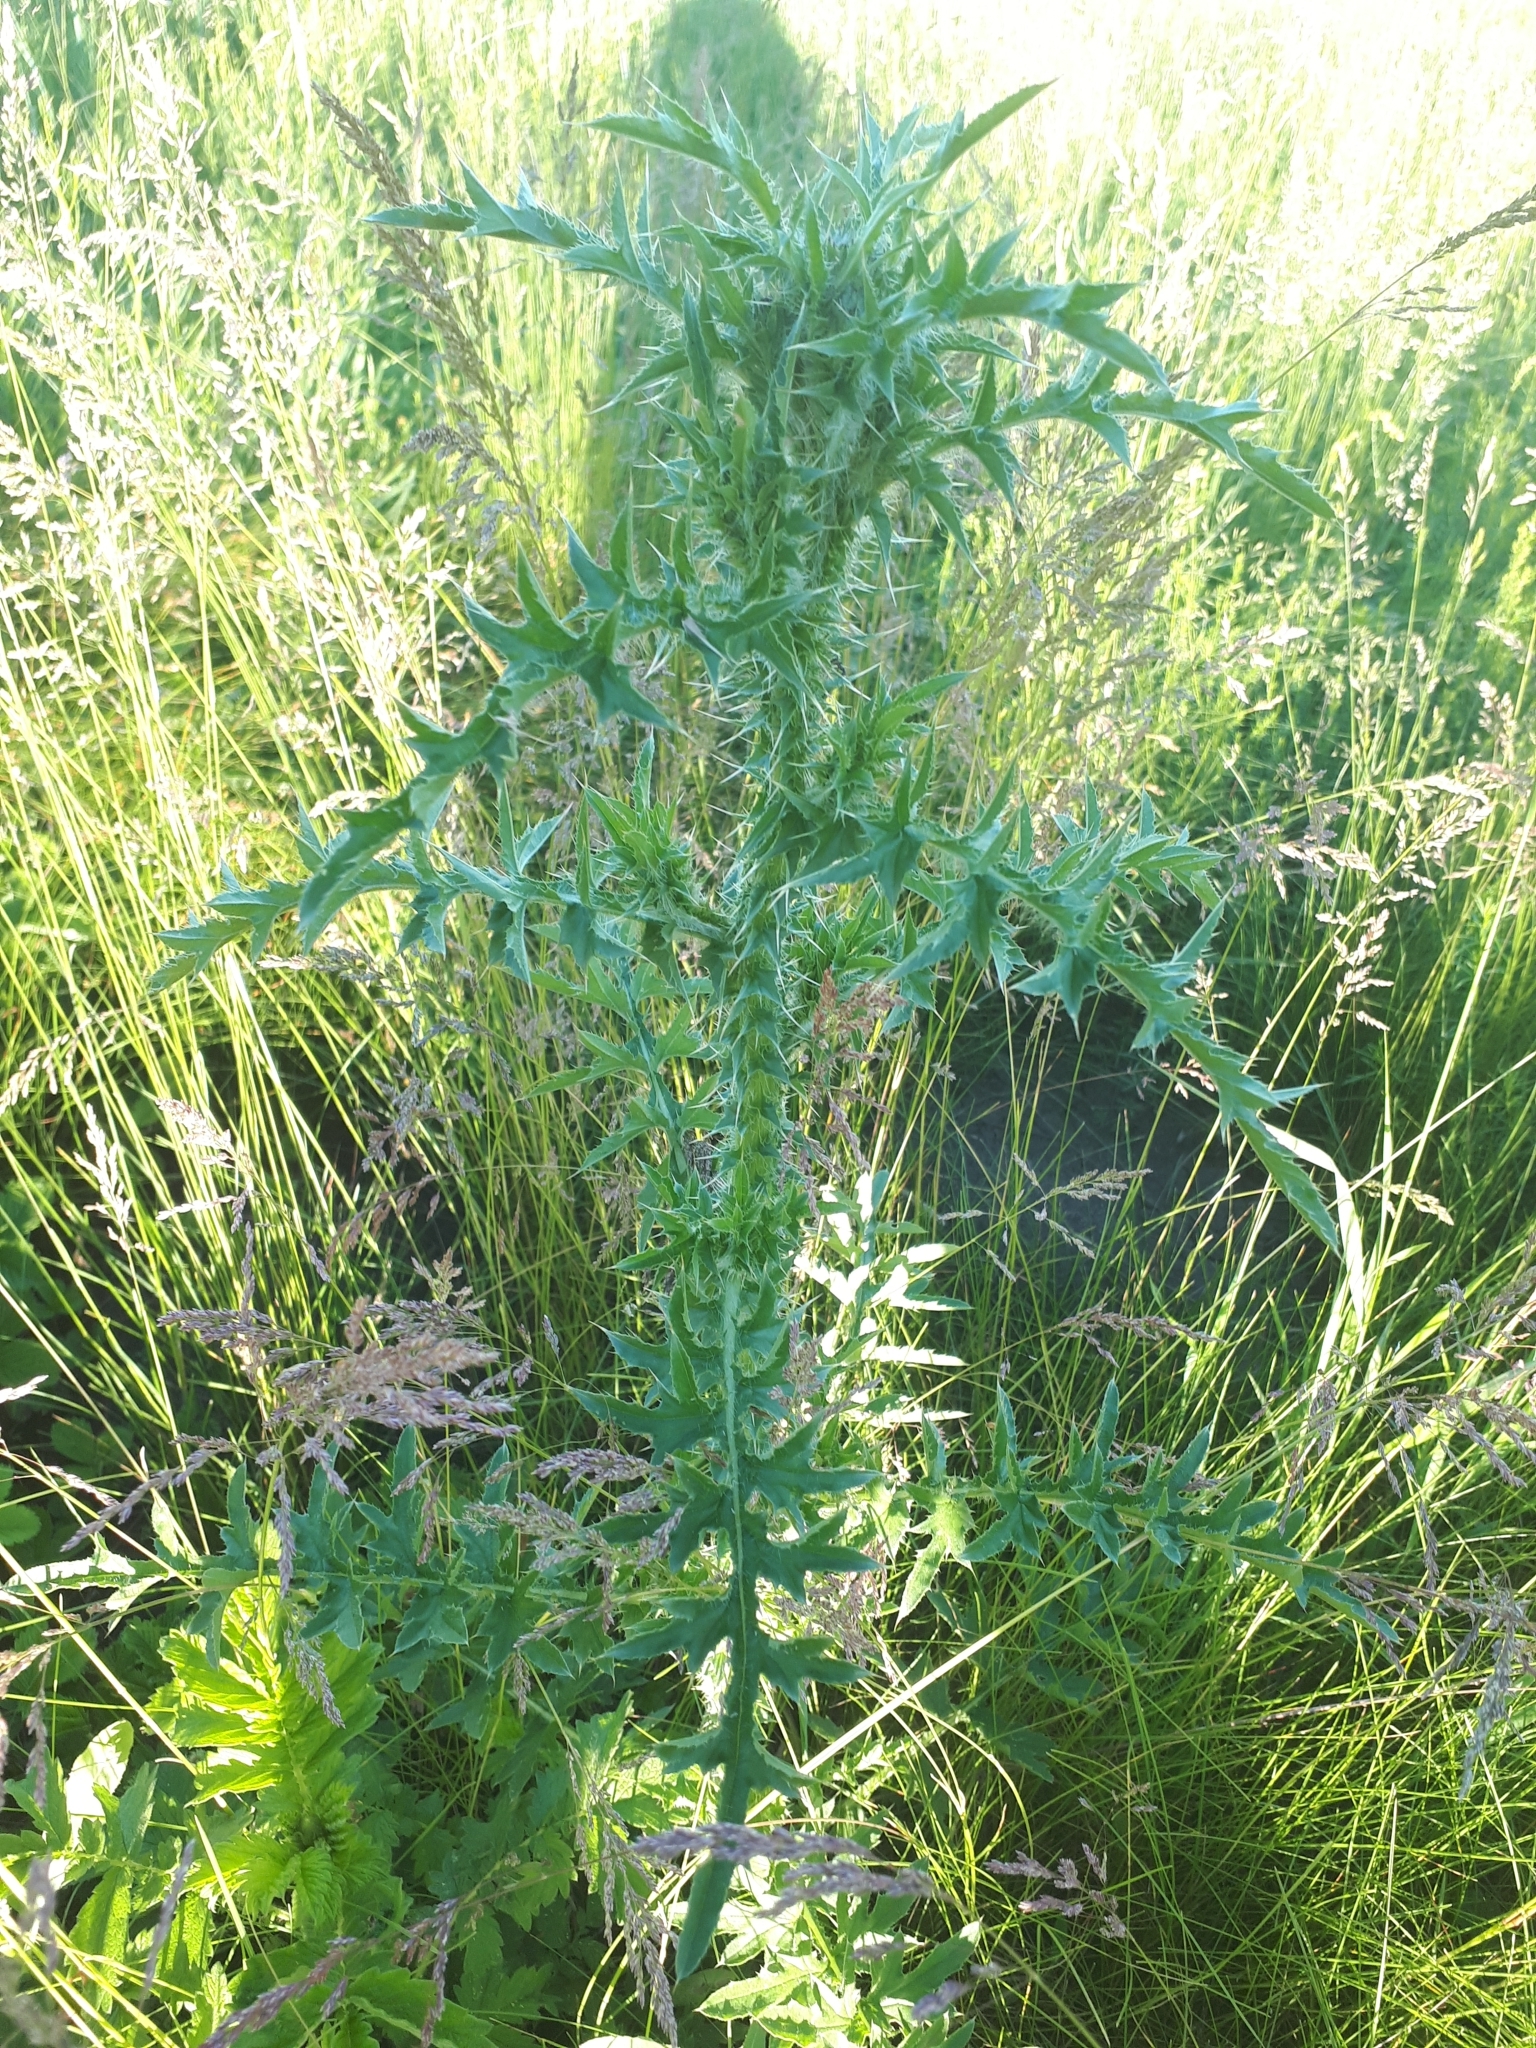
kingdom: Plantae
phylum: Tracheophyta
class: Magnoliopsida
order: Asterales
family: Asteraceae
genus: Carduus
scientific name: Carduus acanthoides
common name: Plumeless thistle
